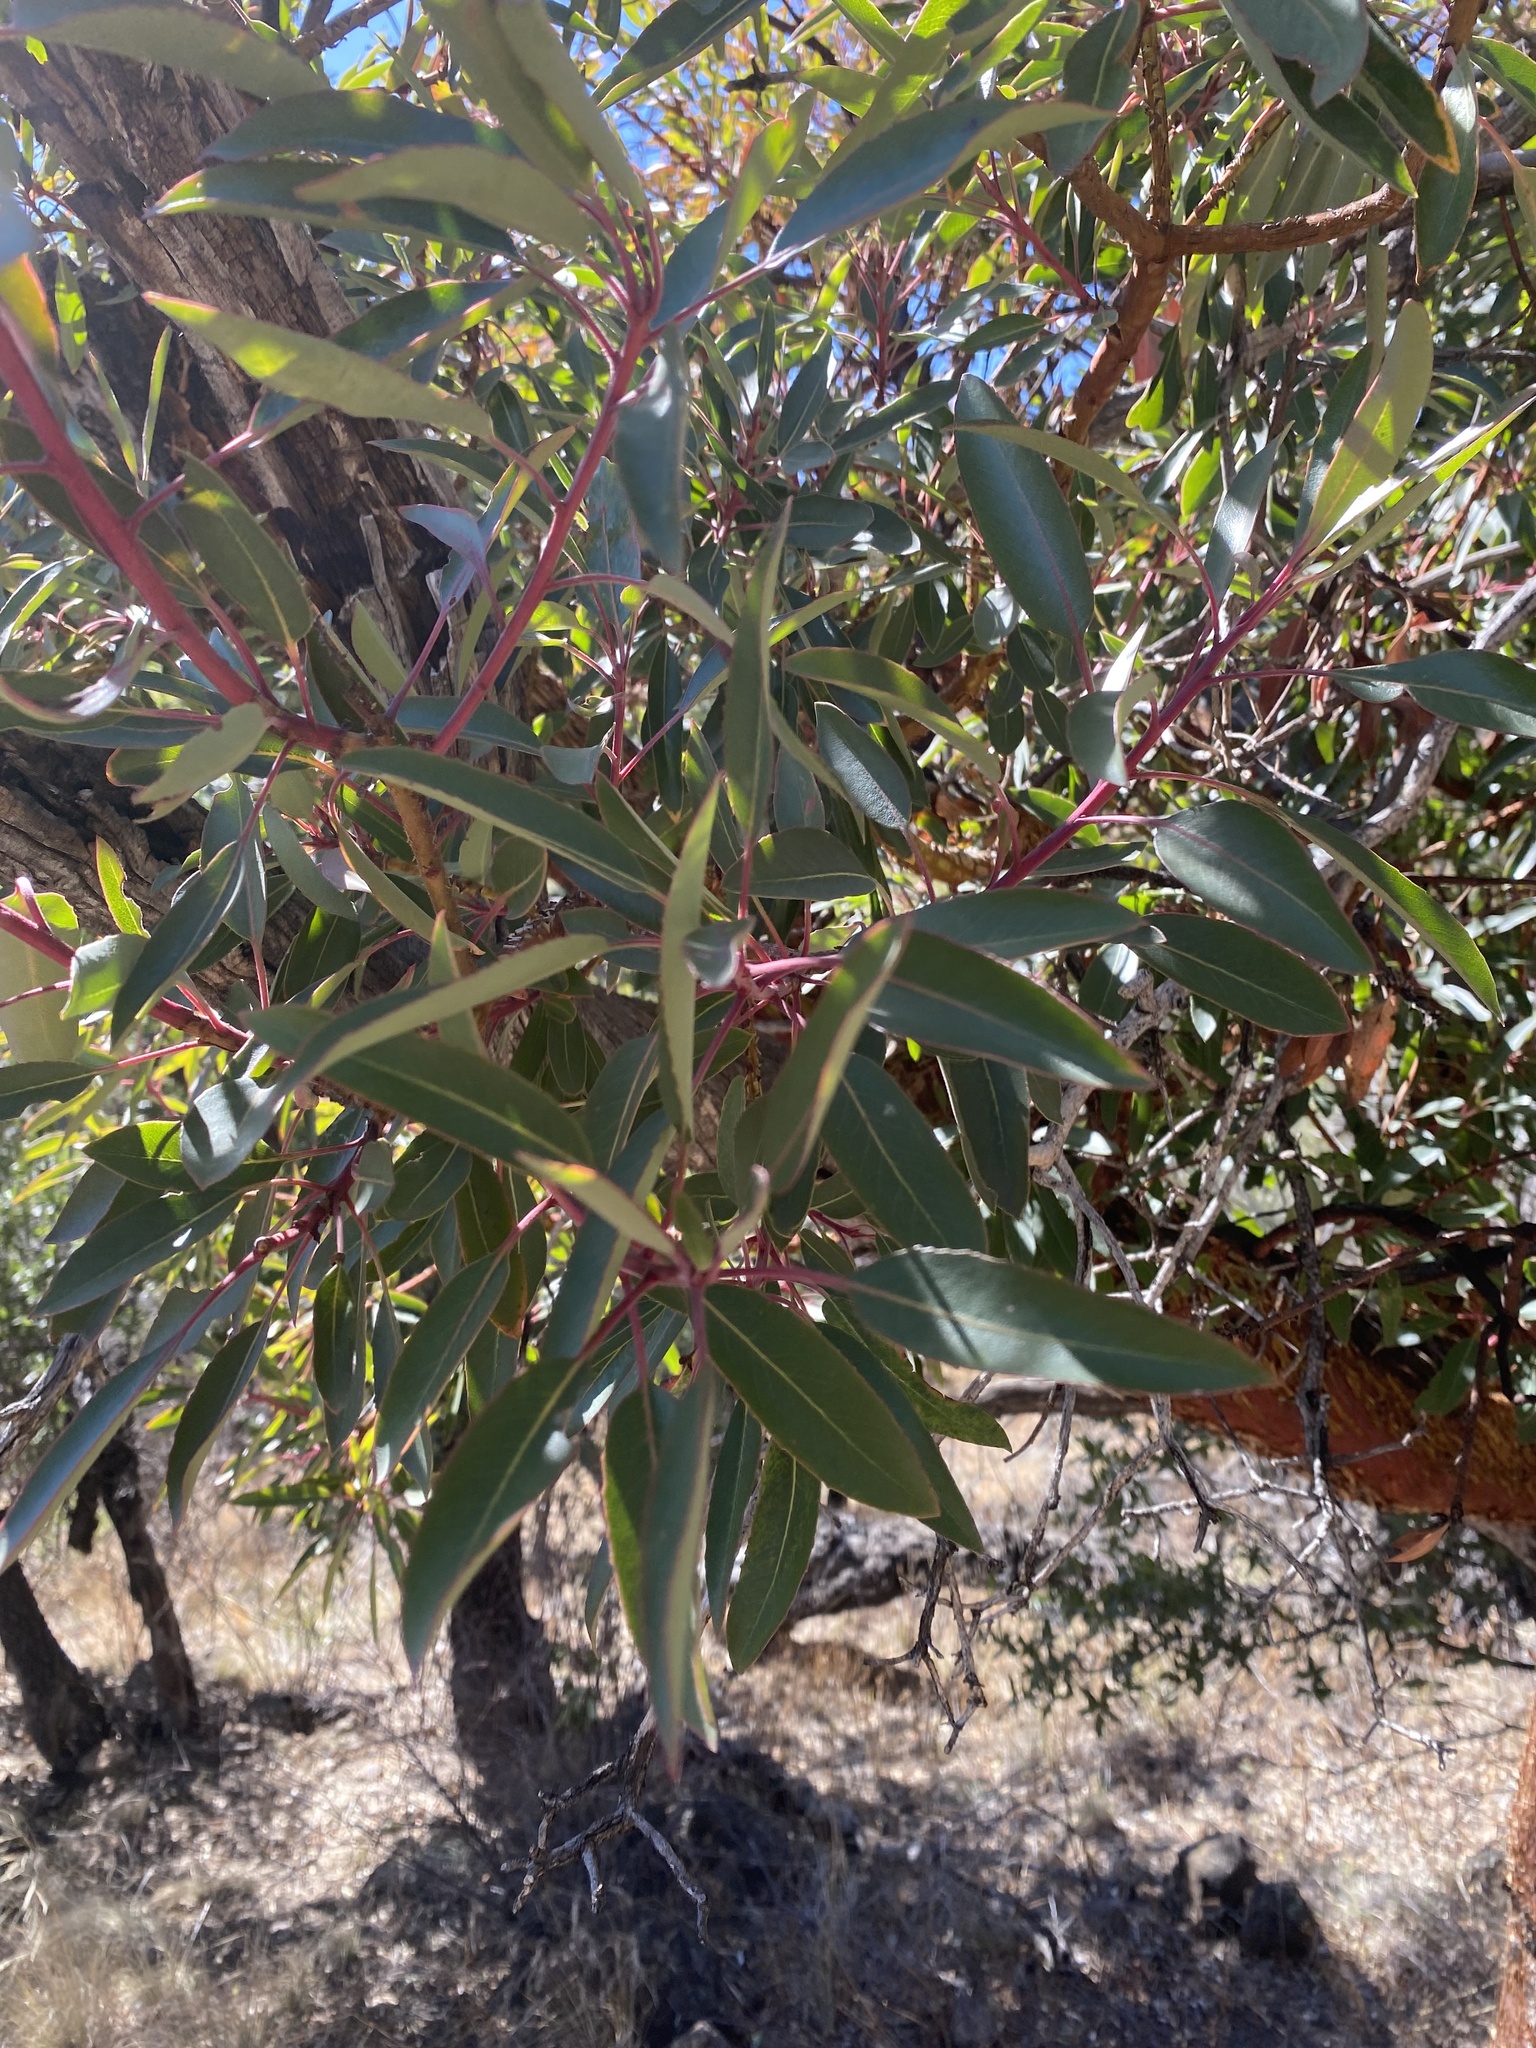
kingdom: Plantae
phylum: Tracheophyta
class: Magnoliopsida
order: Ericales
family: Ericaceae
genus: Arbutus
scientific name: Arbutus arizonica
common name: Arizona madrone
